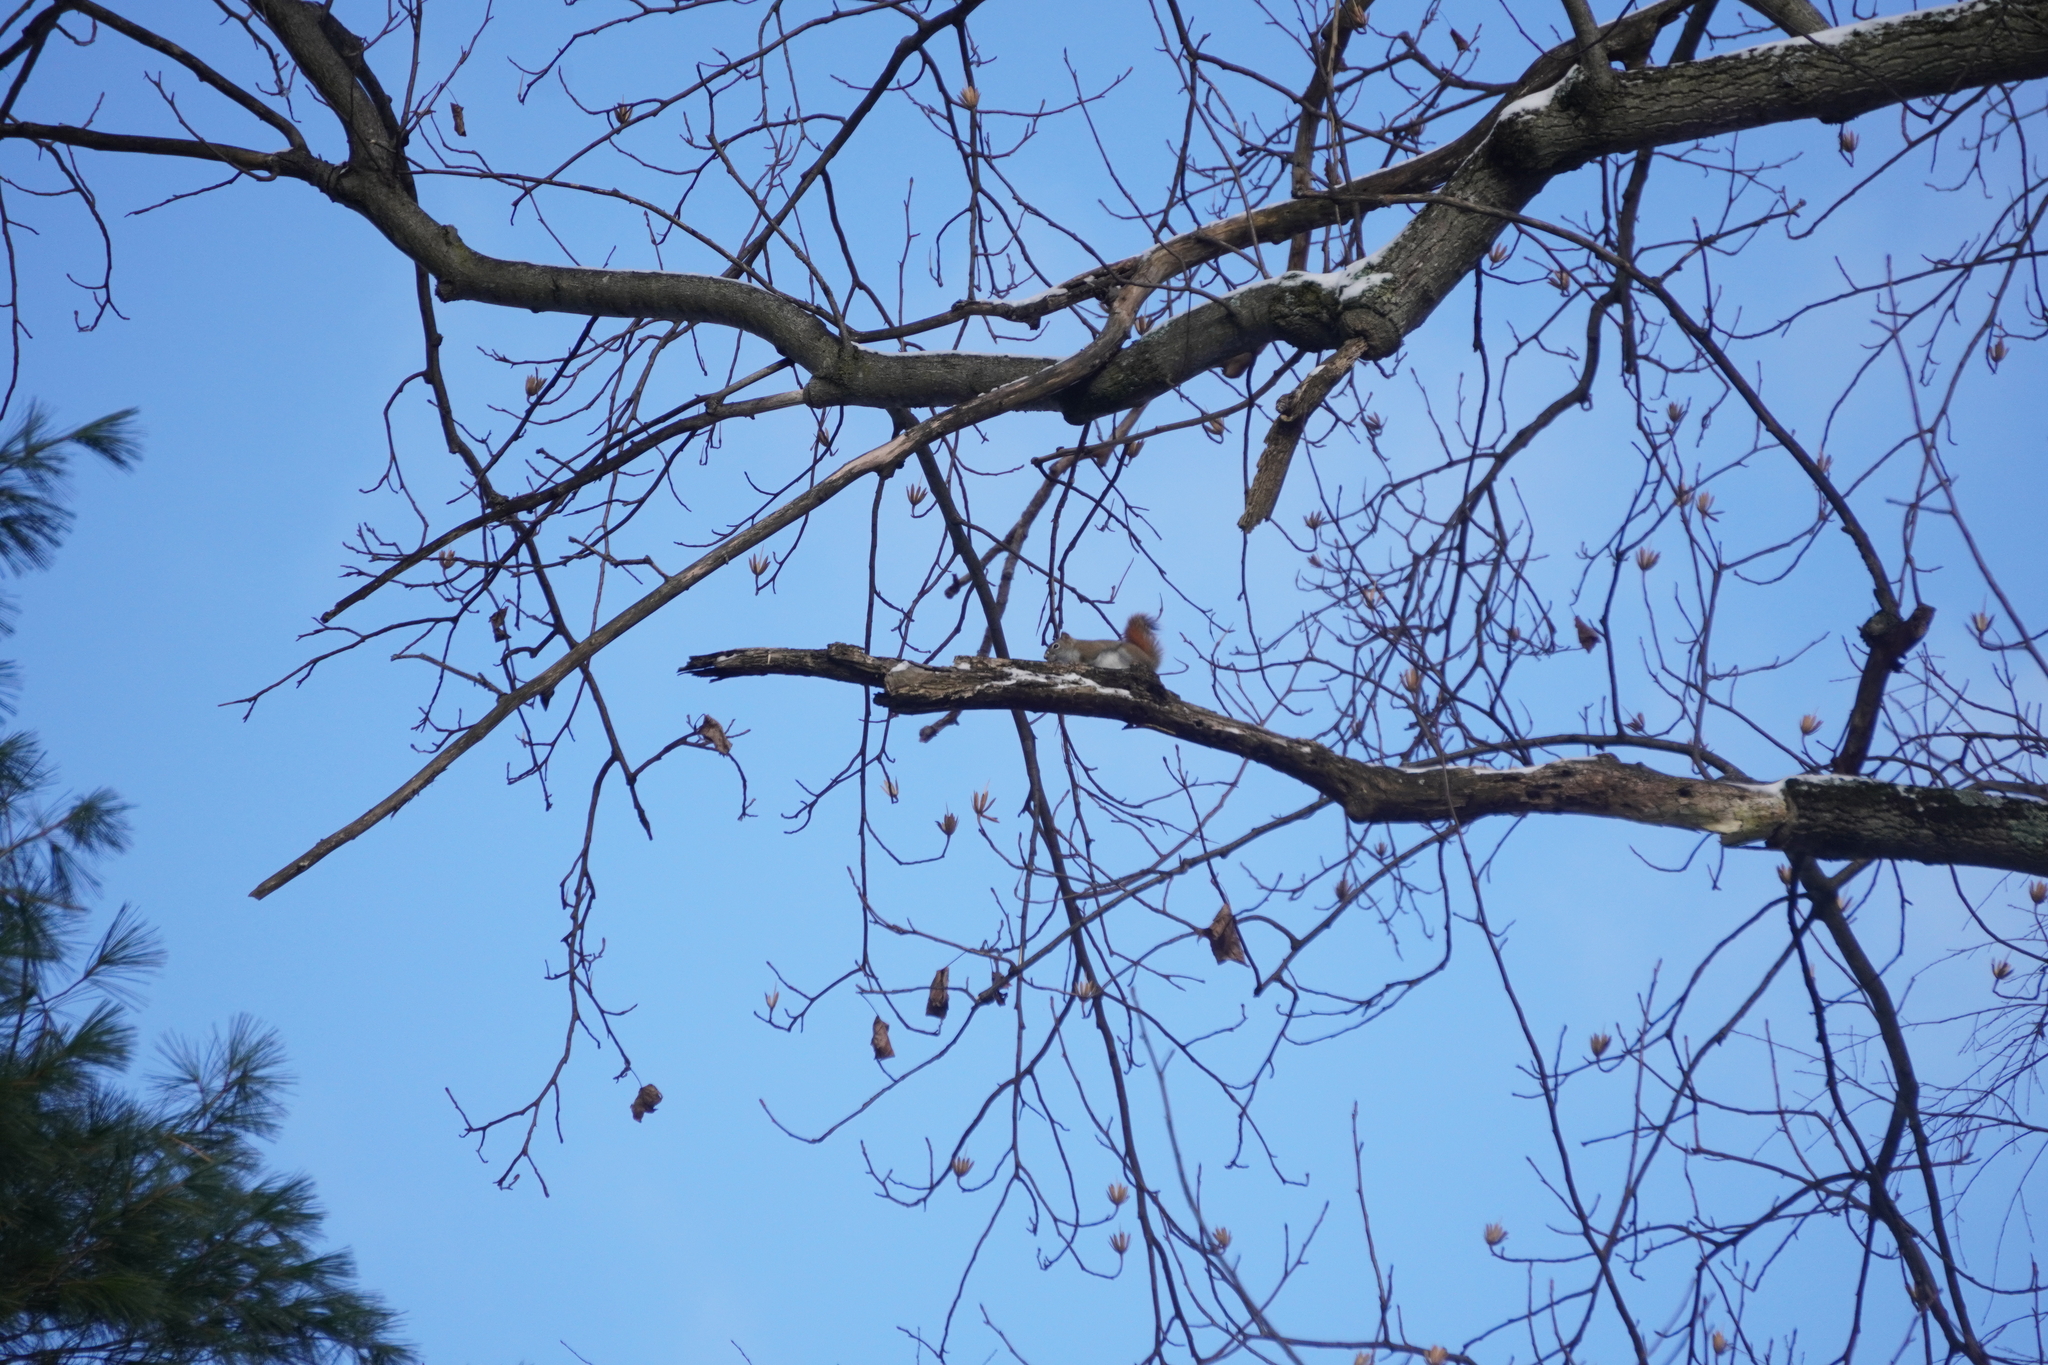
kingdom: Animalia
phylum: Chordata
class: Mammalia
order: Rodentia
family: Sciuridae
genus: Tamiasciurus
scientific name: Tamiasciurus hudsonicus
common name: Red squirrel
